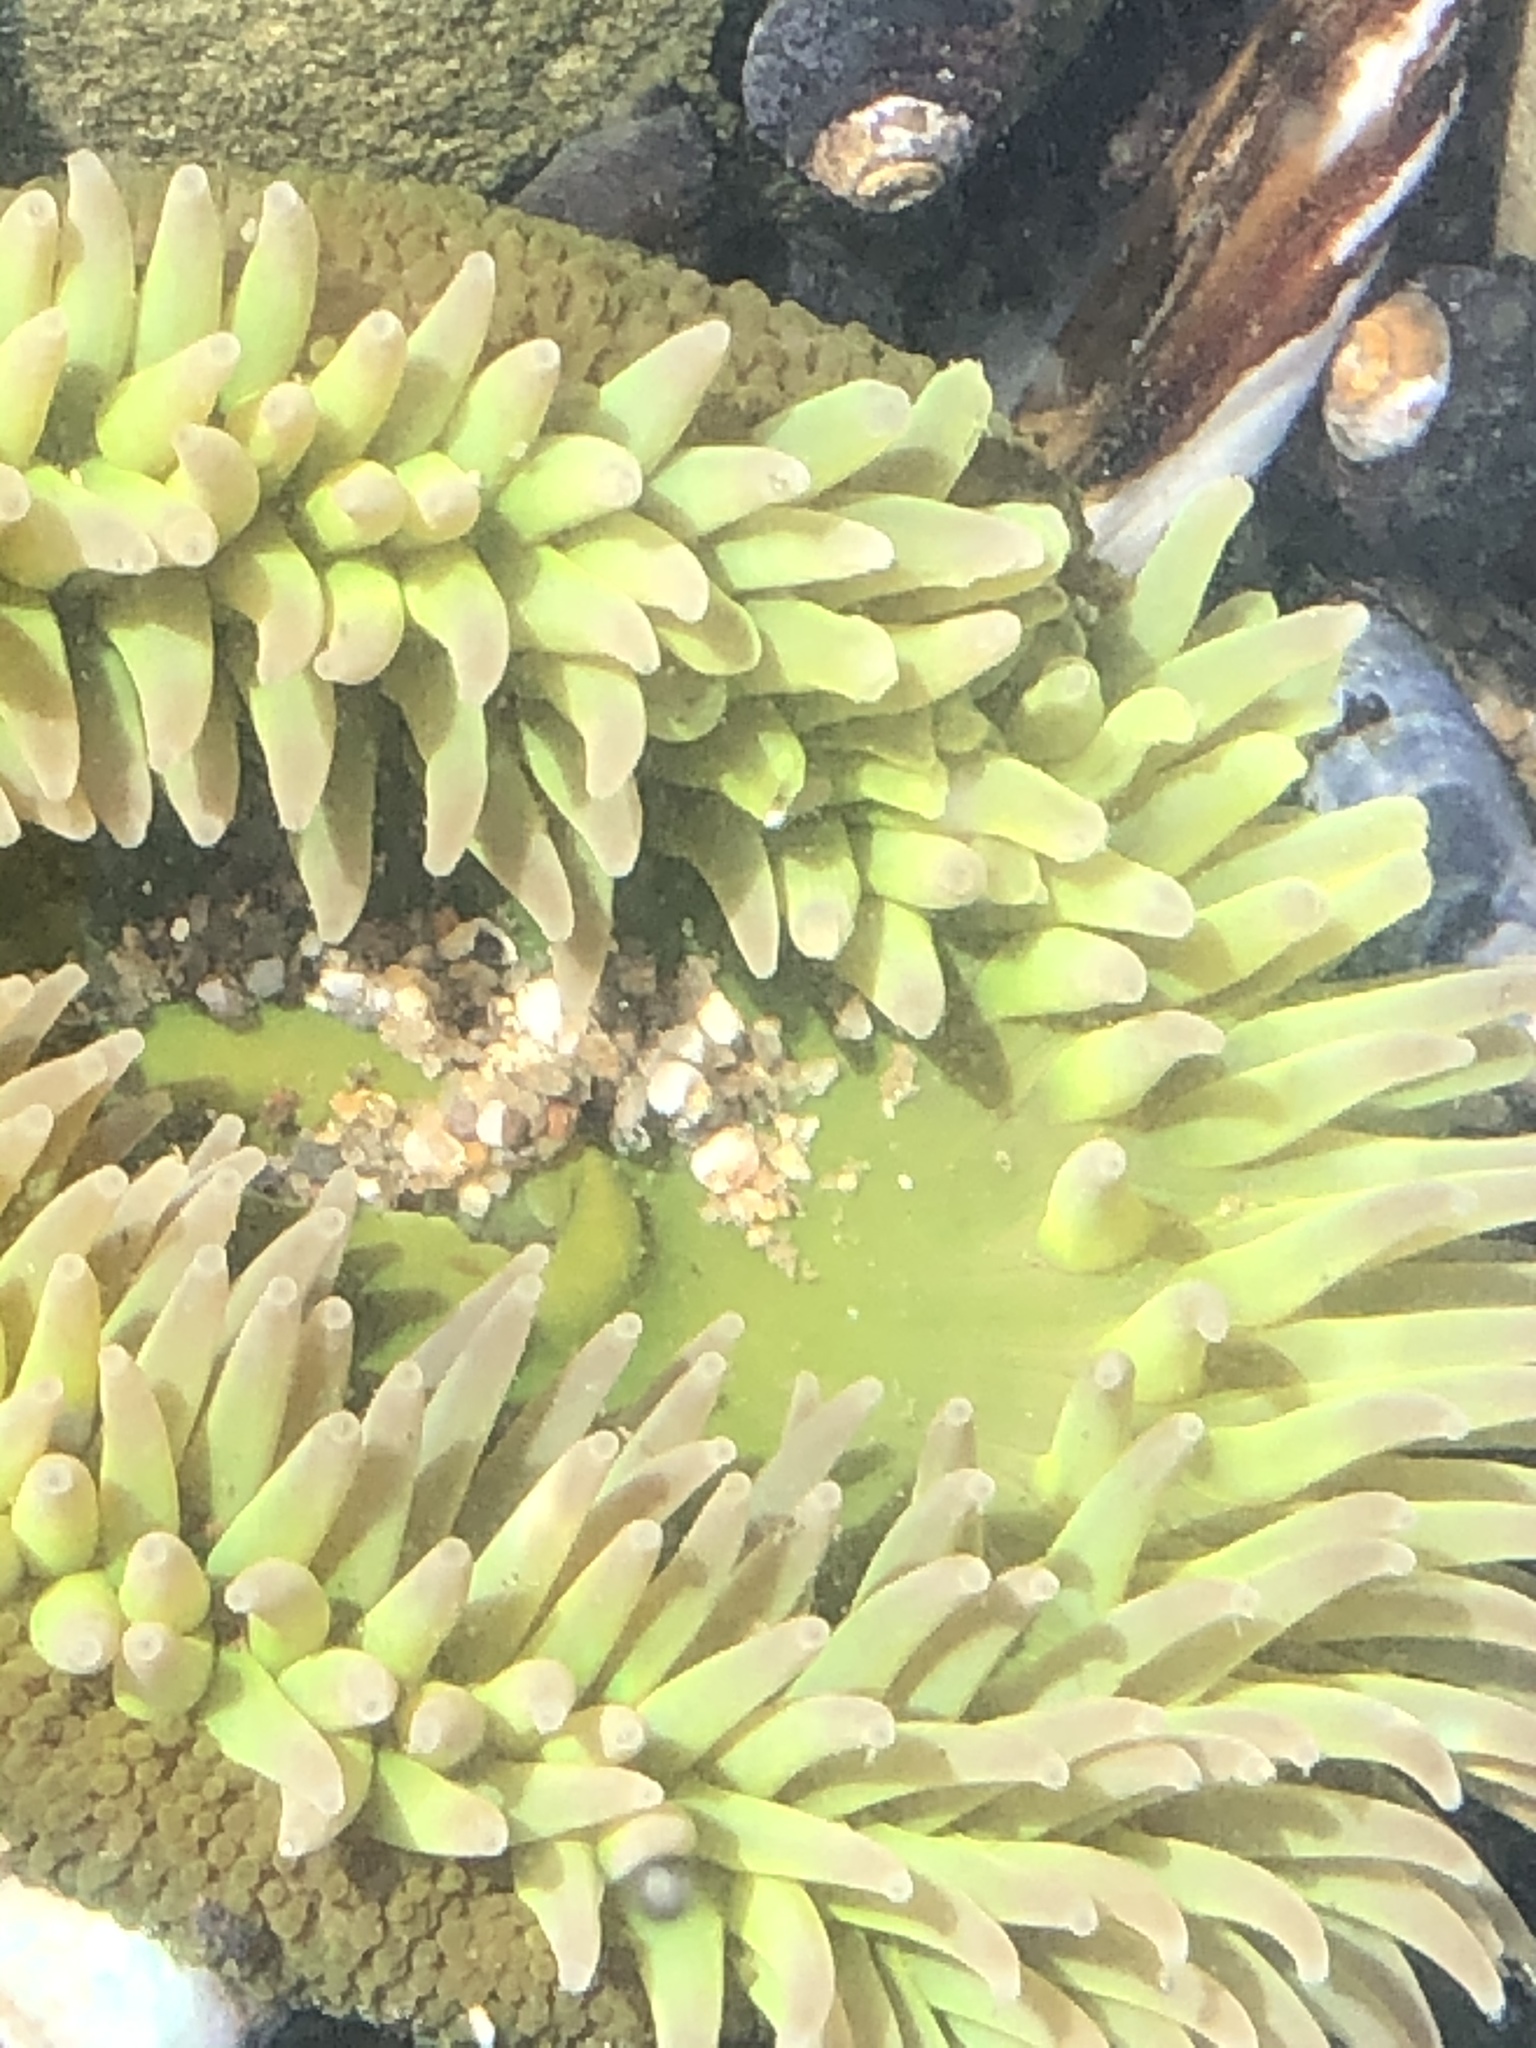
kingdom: Animalia
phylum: Cnidaria
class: Anthozoa
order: Actiniaria
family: Actiniidae
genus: Anthopleura
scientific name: Anthopleura xanthogrammica
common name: Giant green anemone
